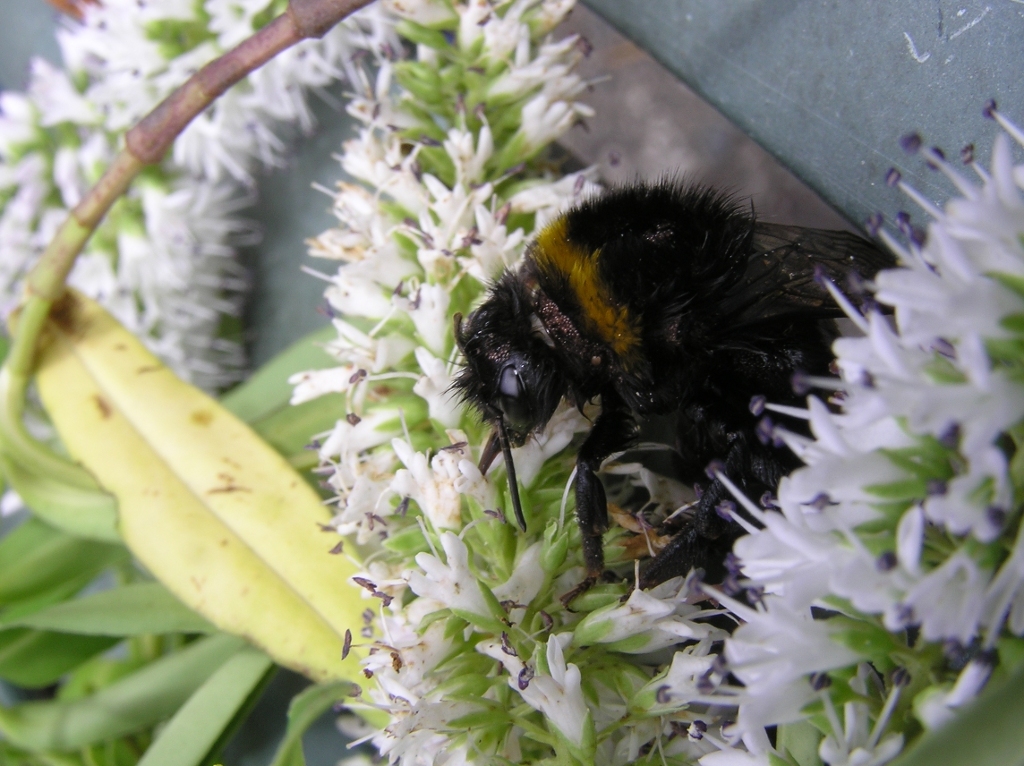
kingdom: Animalia
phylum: Arthropoda
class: Insecta
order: Hymenoptera
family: Apidae
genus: Bombus
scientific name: Bombus terrestris
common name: Buff-tailed bumblebee
